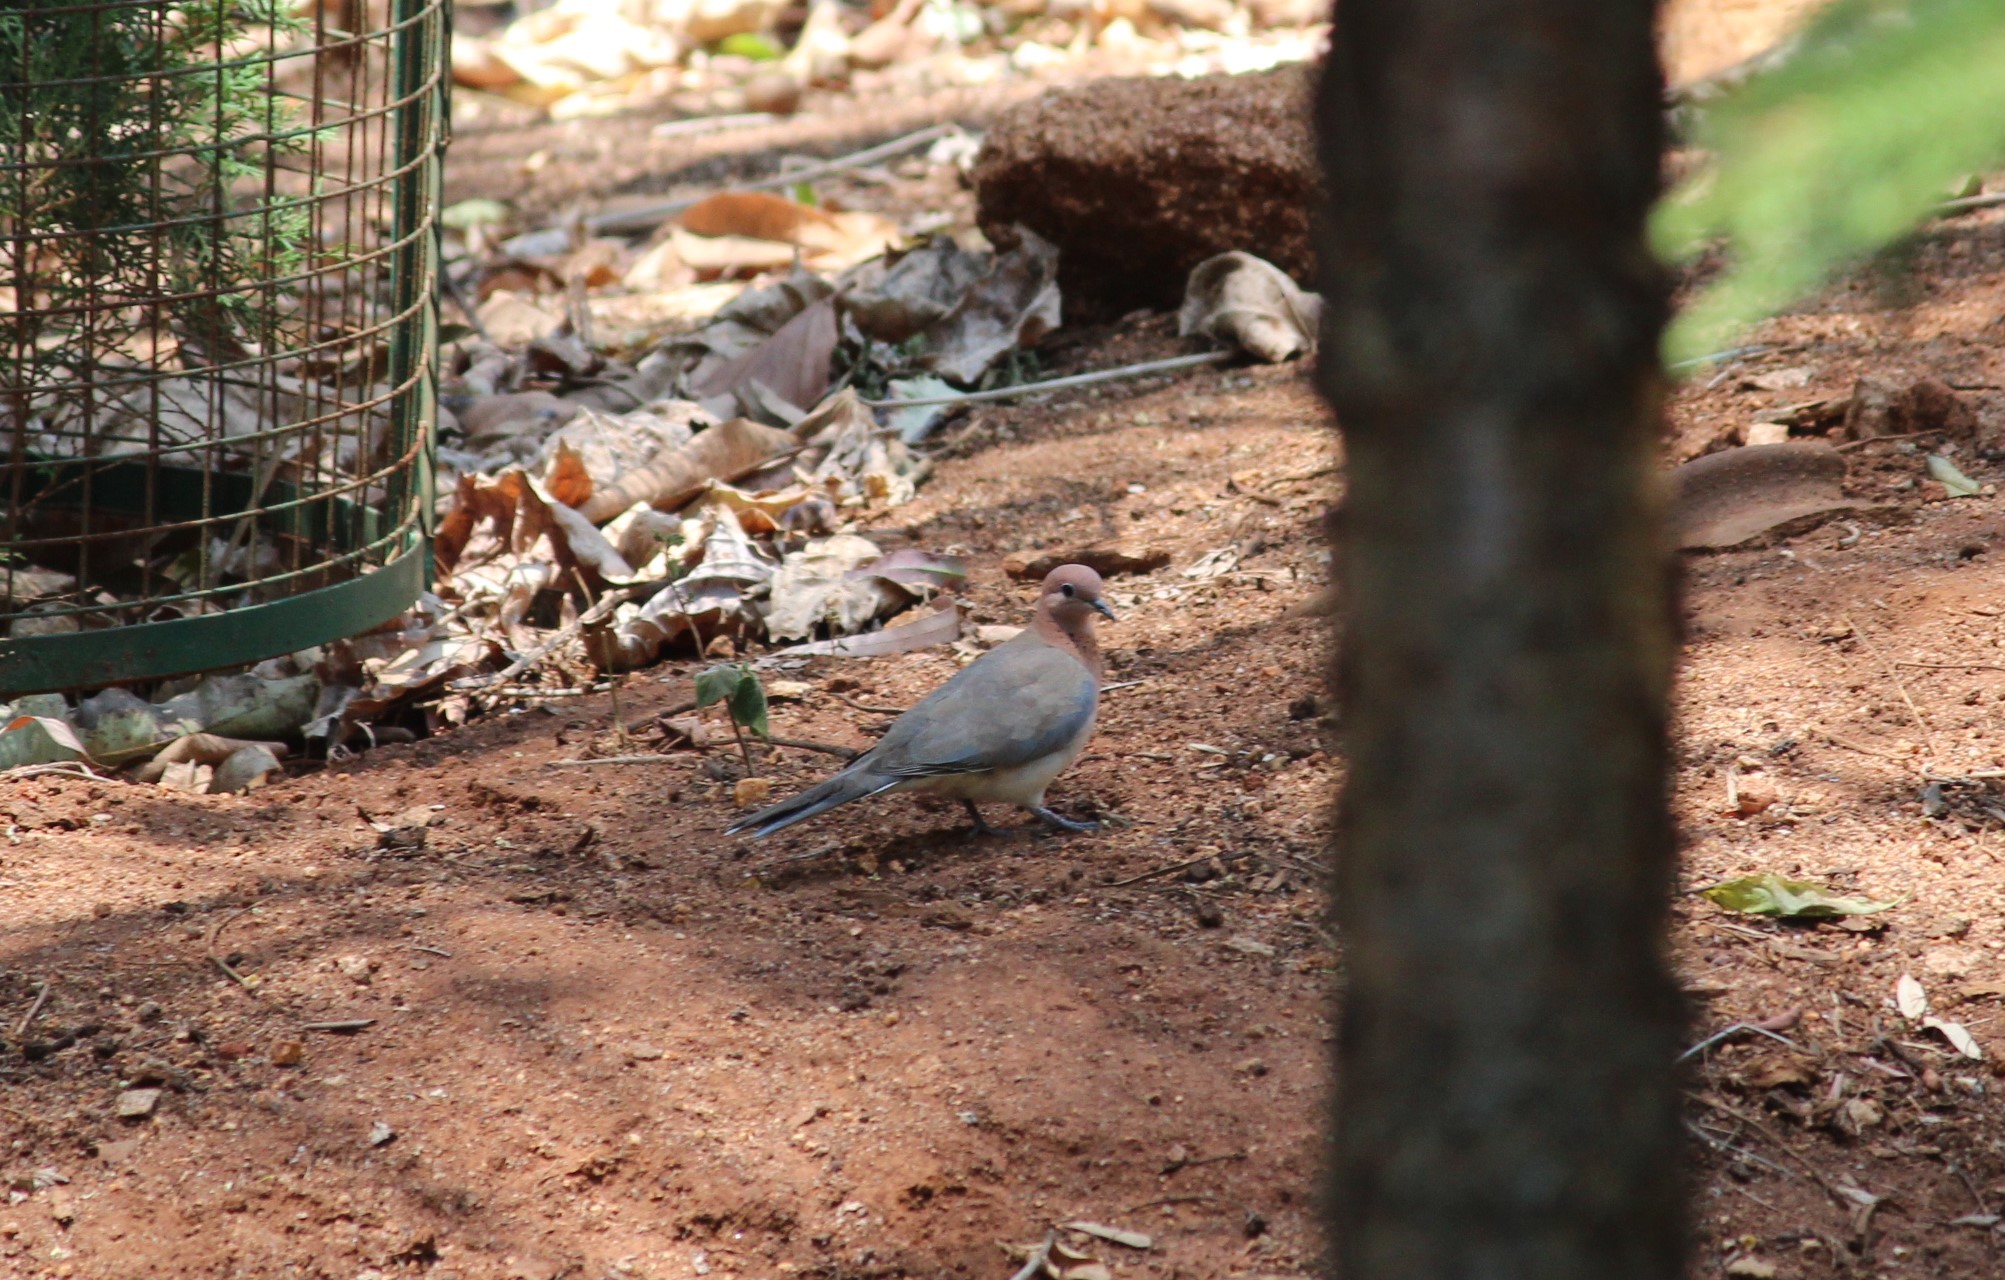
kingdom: Animalia
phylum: Chordata
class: Aves
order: Columbiformes
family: Columbidae
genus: Spilopelia
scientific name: Spilopelia senegalensis
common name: Laughing dove
